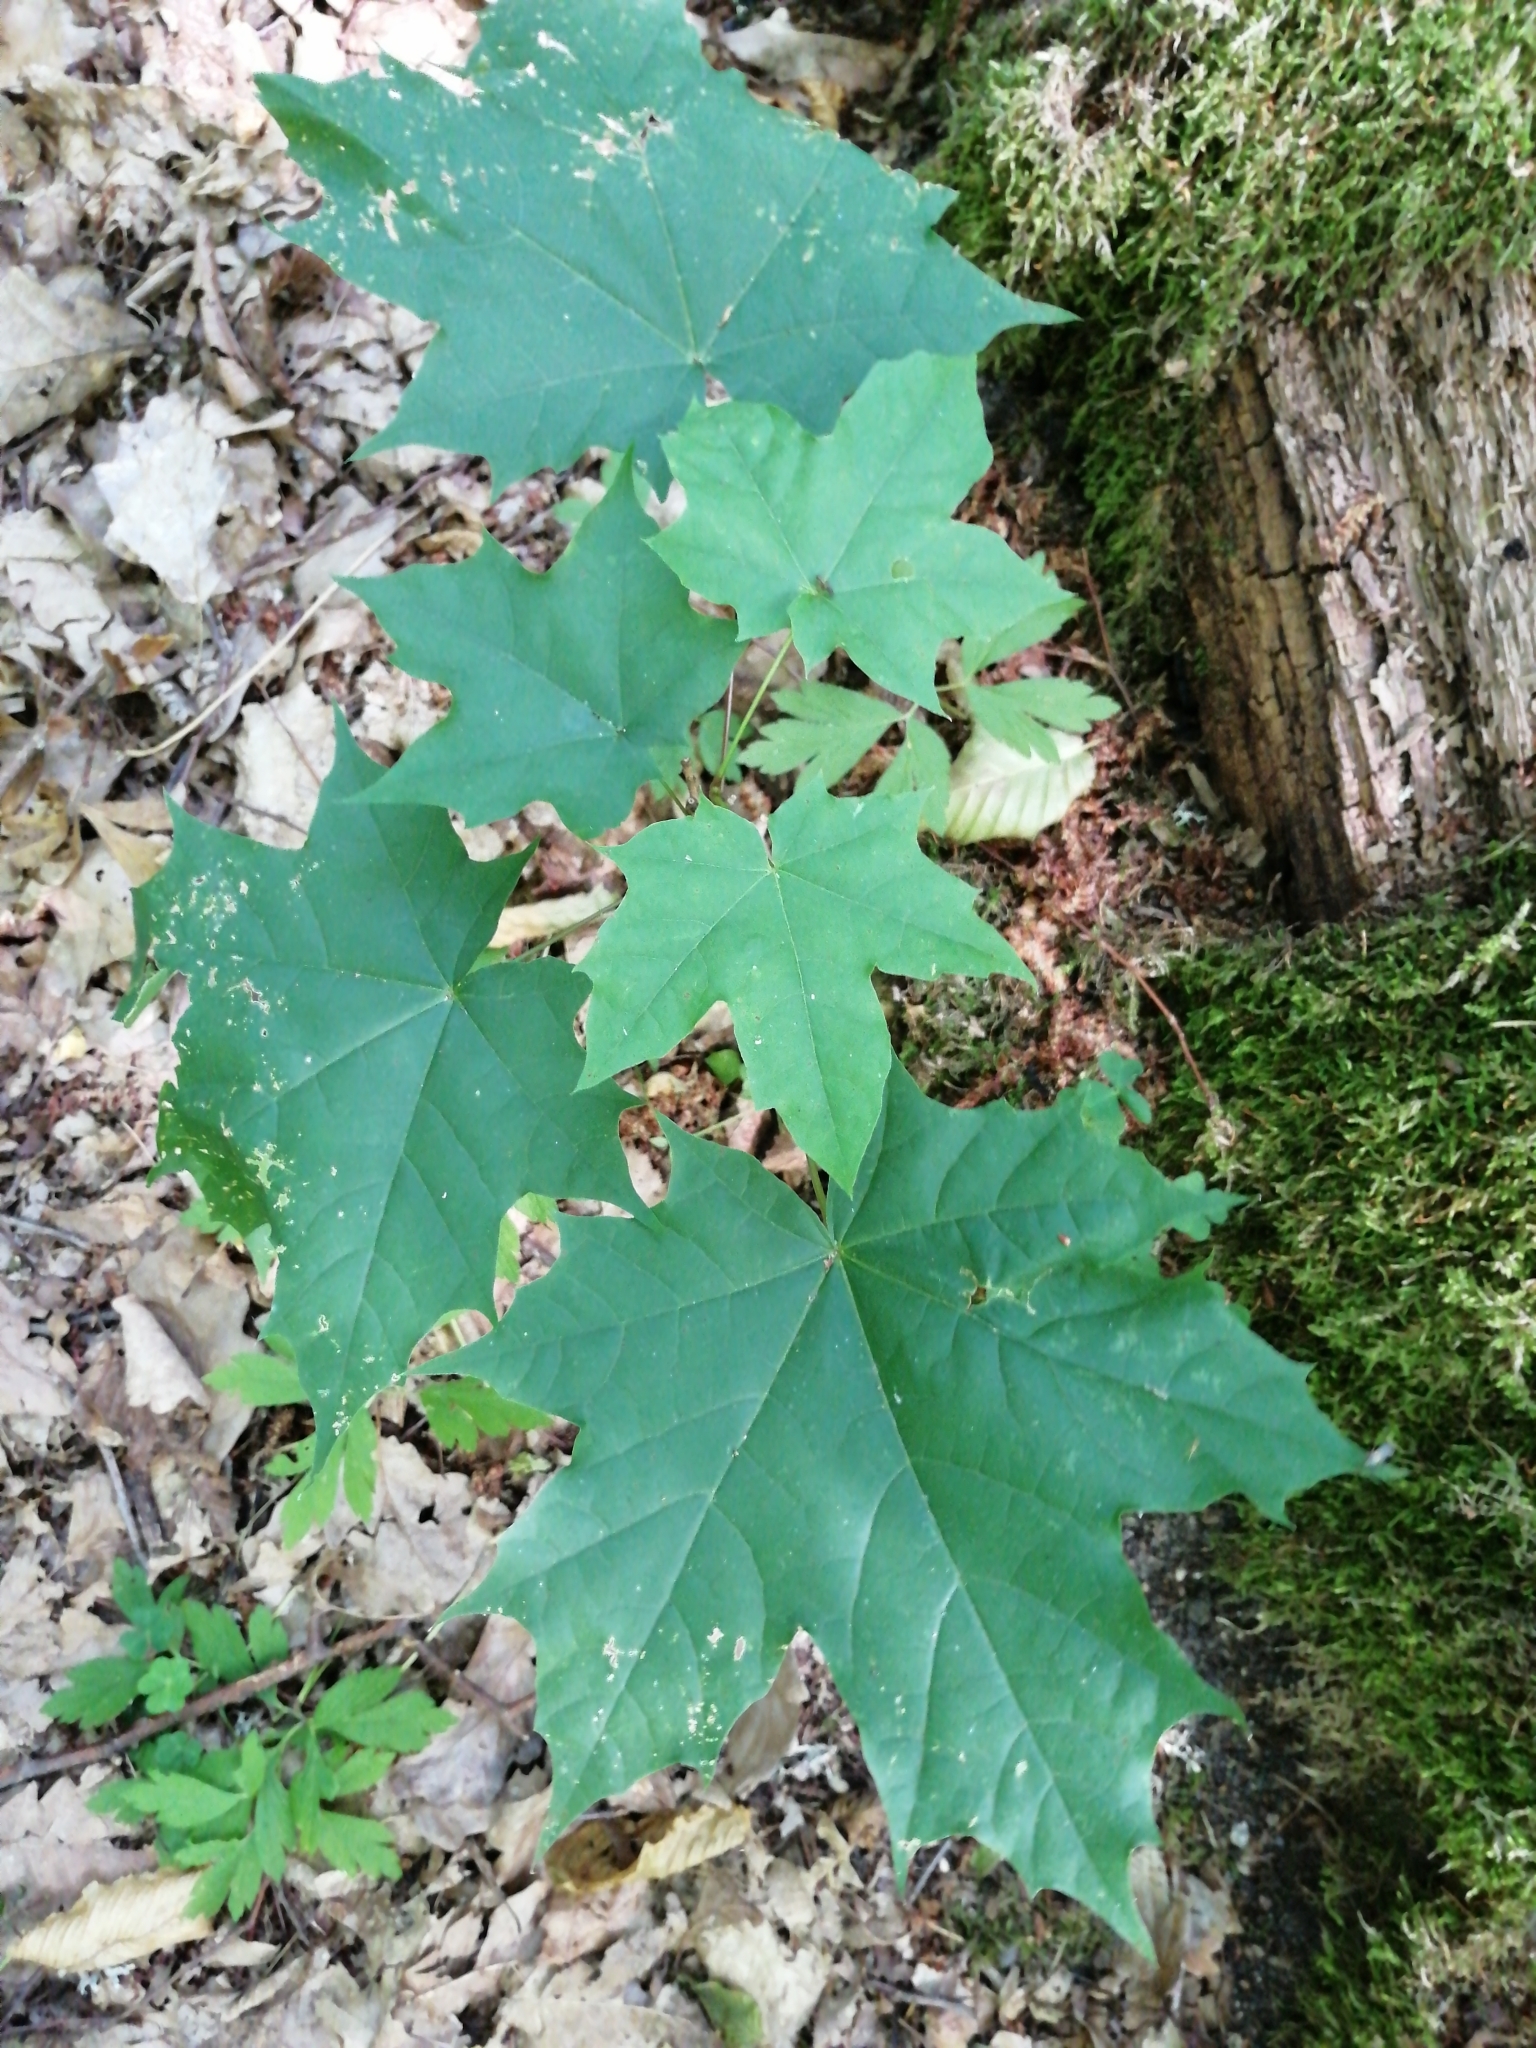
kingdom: Plantae
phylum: Tracheophyta
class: Magnoliopsida
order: Sapindales
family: Sapindaceae
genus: Acer
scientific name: Acer platanoides
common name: Norway maple
